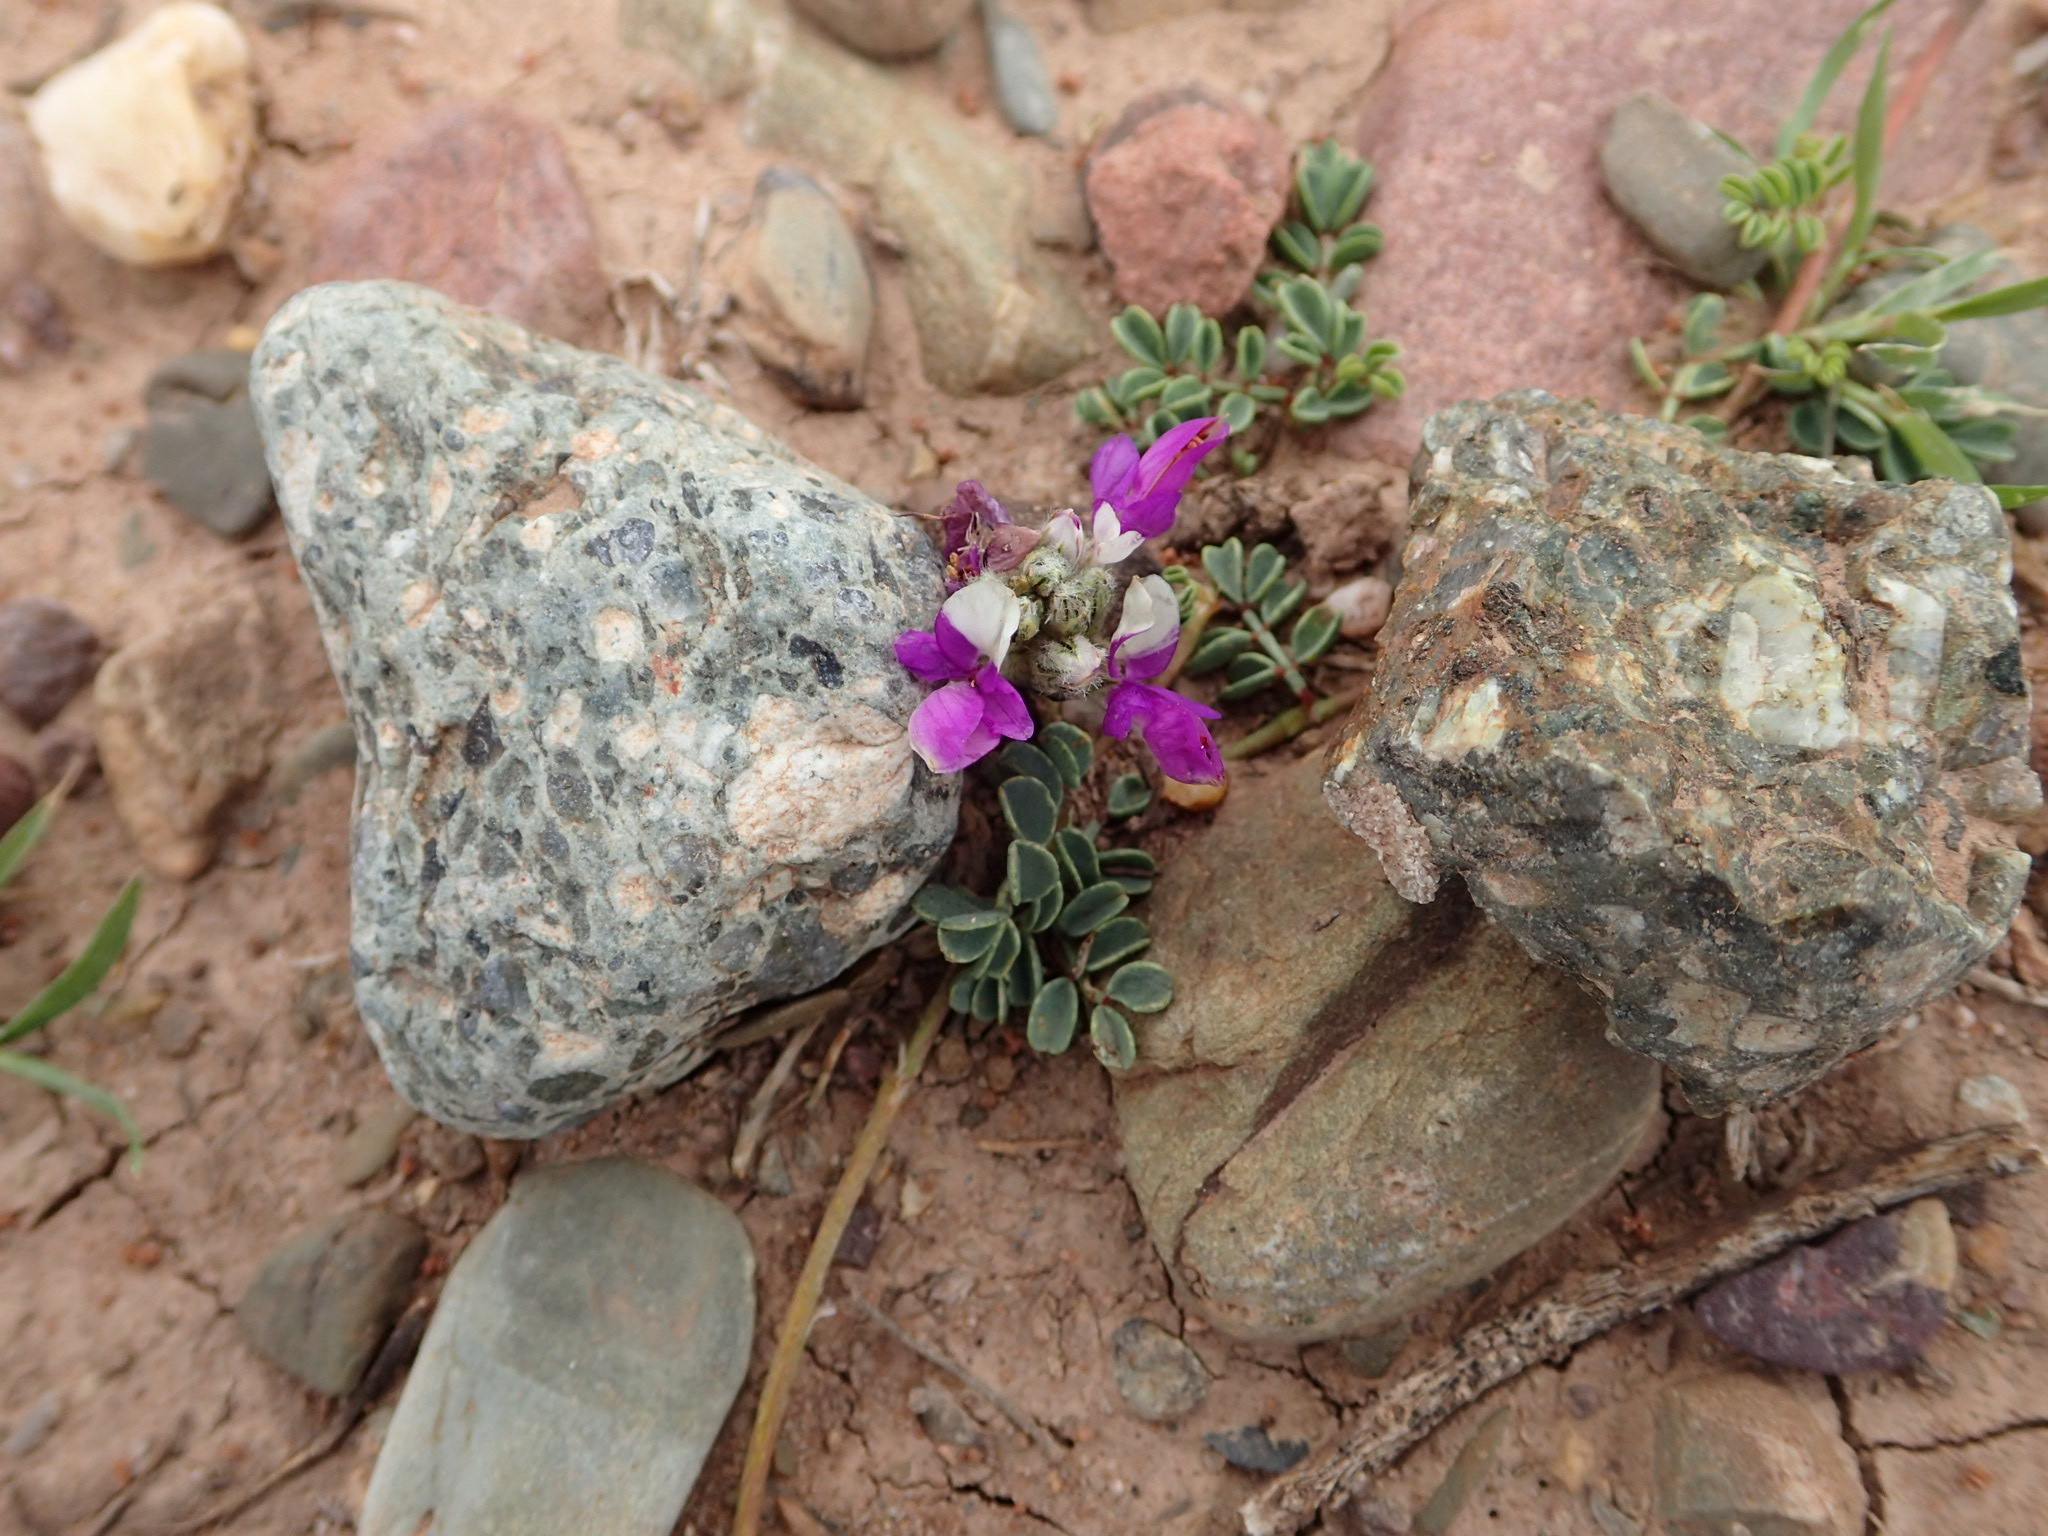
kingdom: Plantae
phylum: Tracheophyta
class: Magnoliopsida
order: Fabales
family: Fabaceae
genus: Dalea
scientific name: Dalea boliviana
